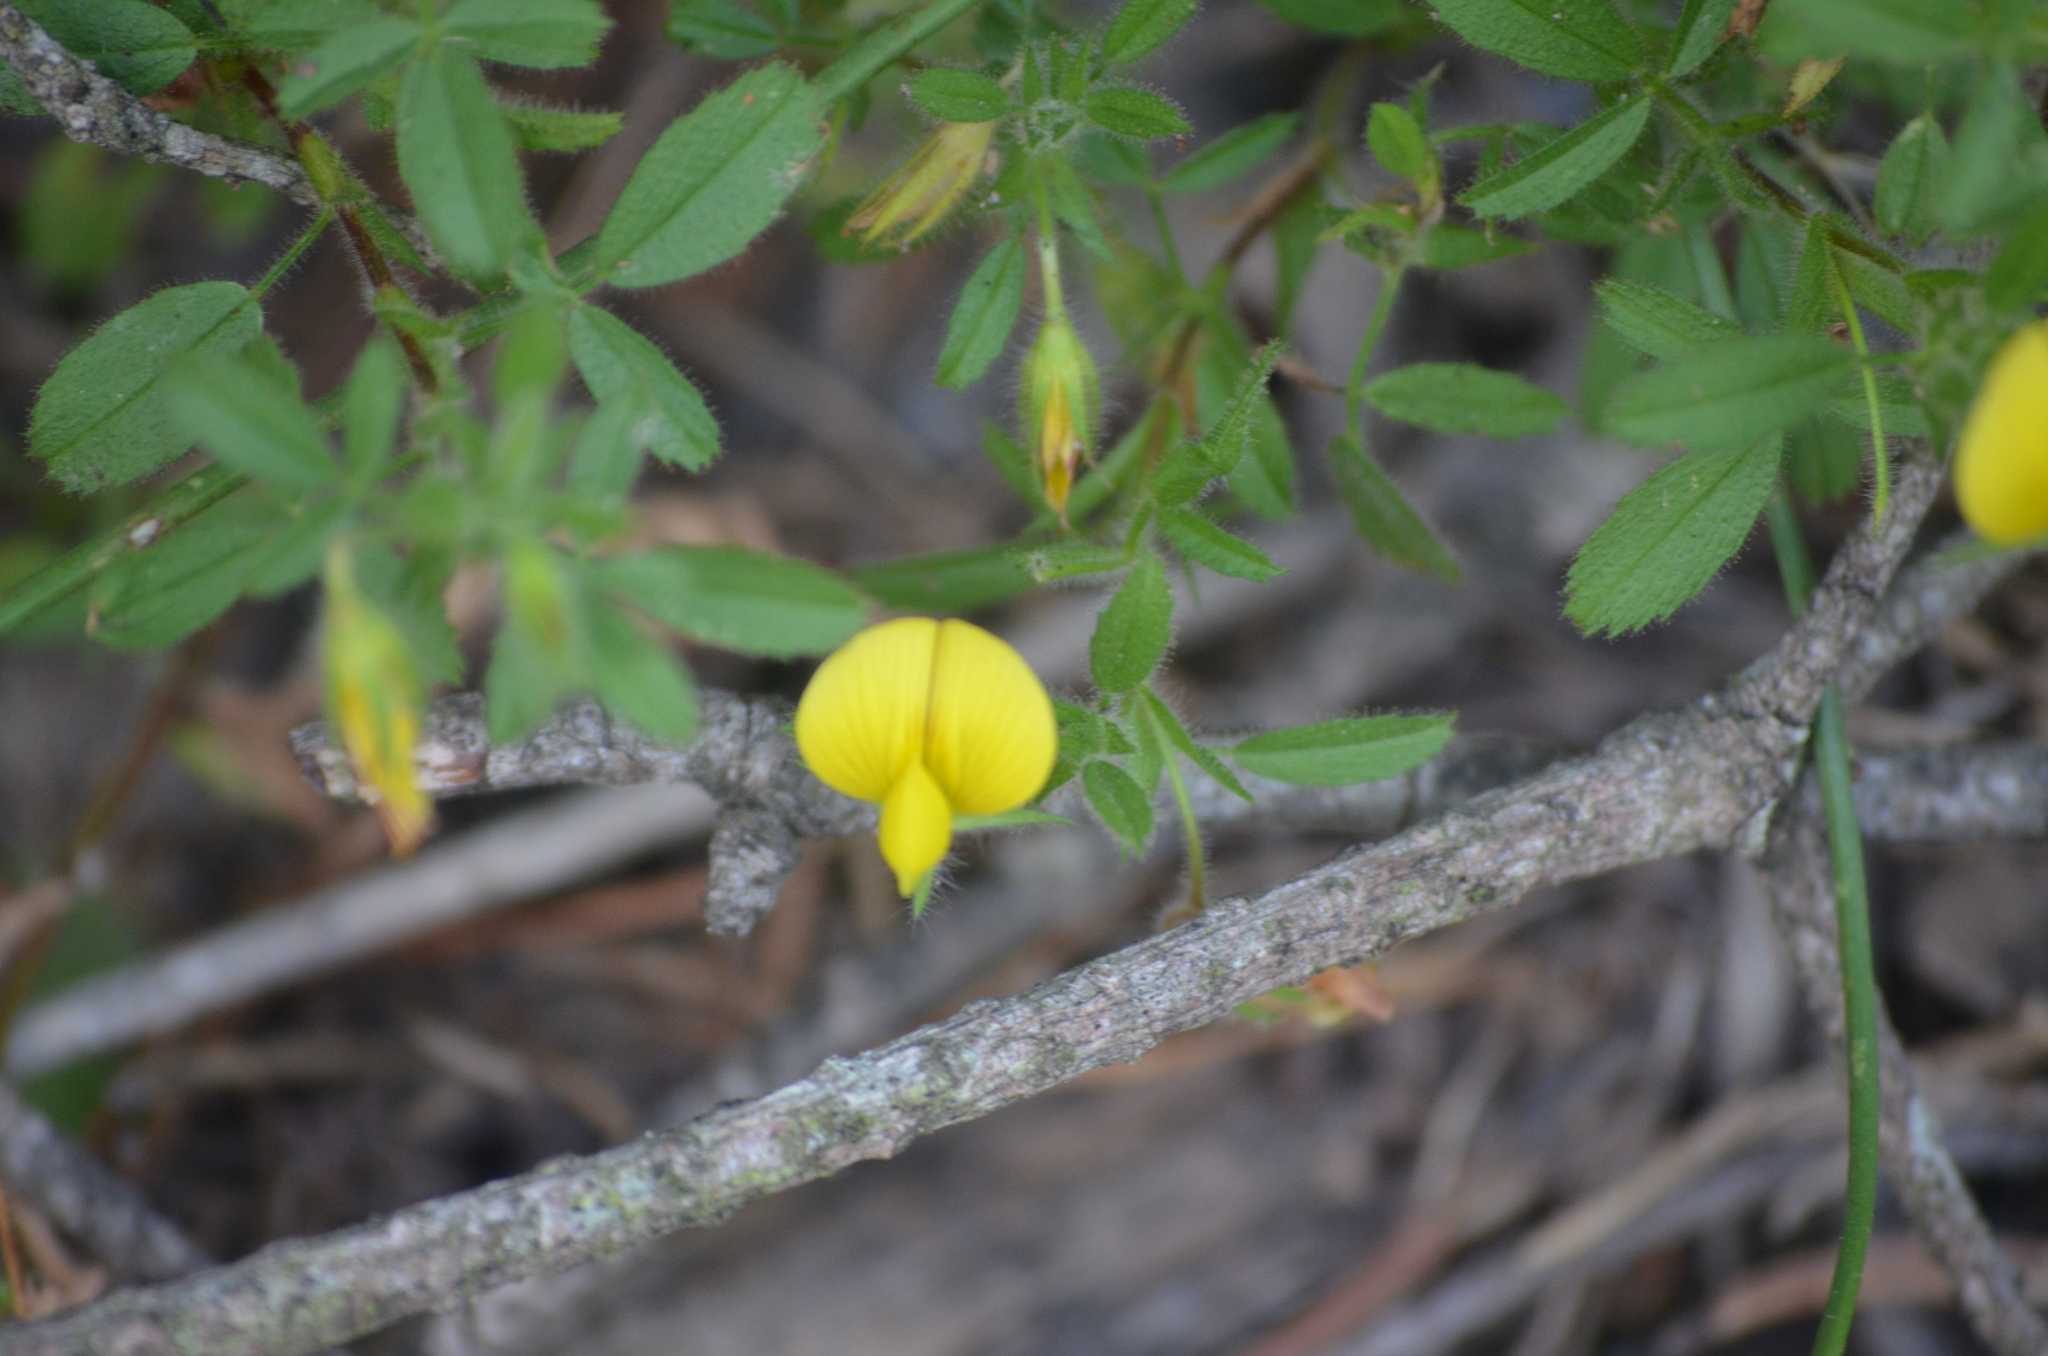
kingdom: Plantae
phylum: Tracheophyta
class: Magnoliopsida
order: Fabales
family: Fabaceae
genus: Ononis
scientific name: Ononis natrix
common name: Yellow restharrow
